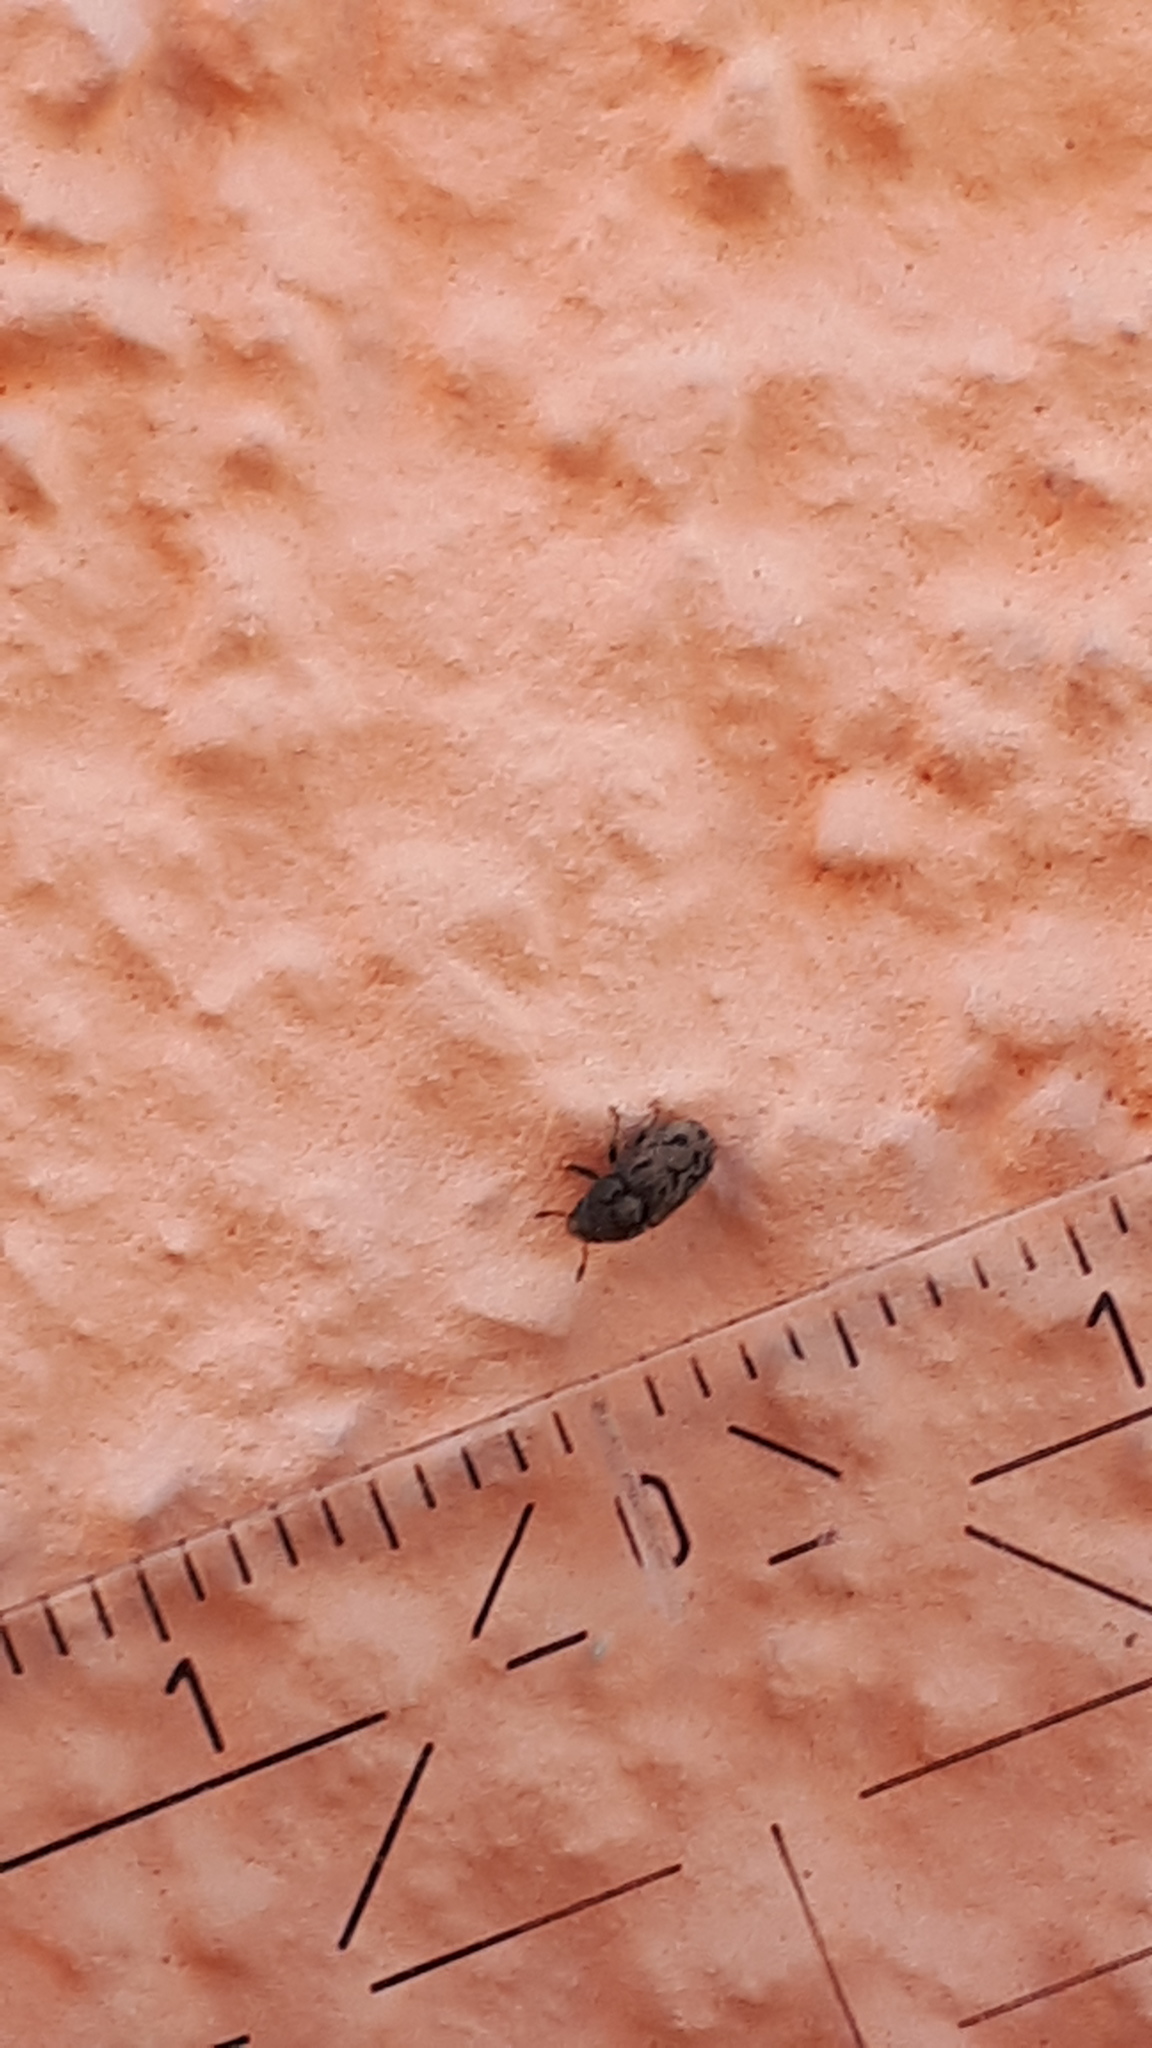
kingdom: Animalia
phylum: Arthropoda
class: Insecta
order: Coleoptera
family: Curculionidae
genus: Hylesinus
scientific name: Hylesinus varius
